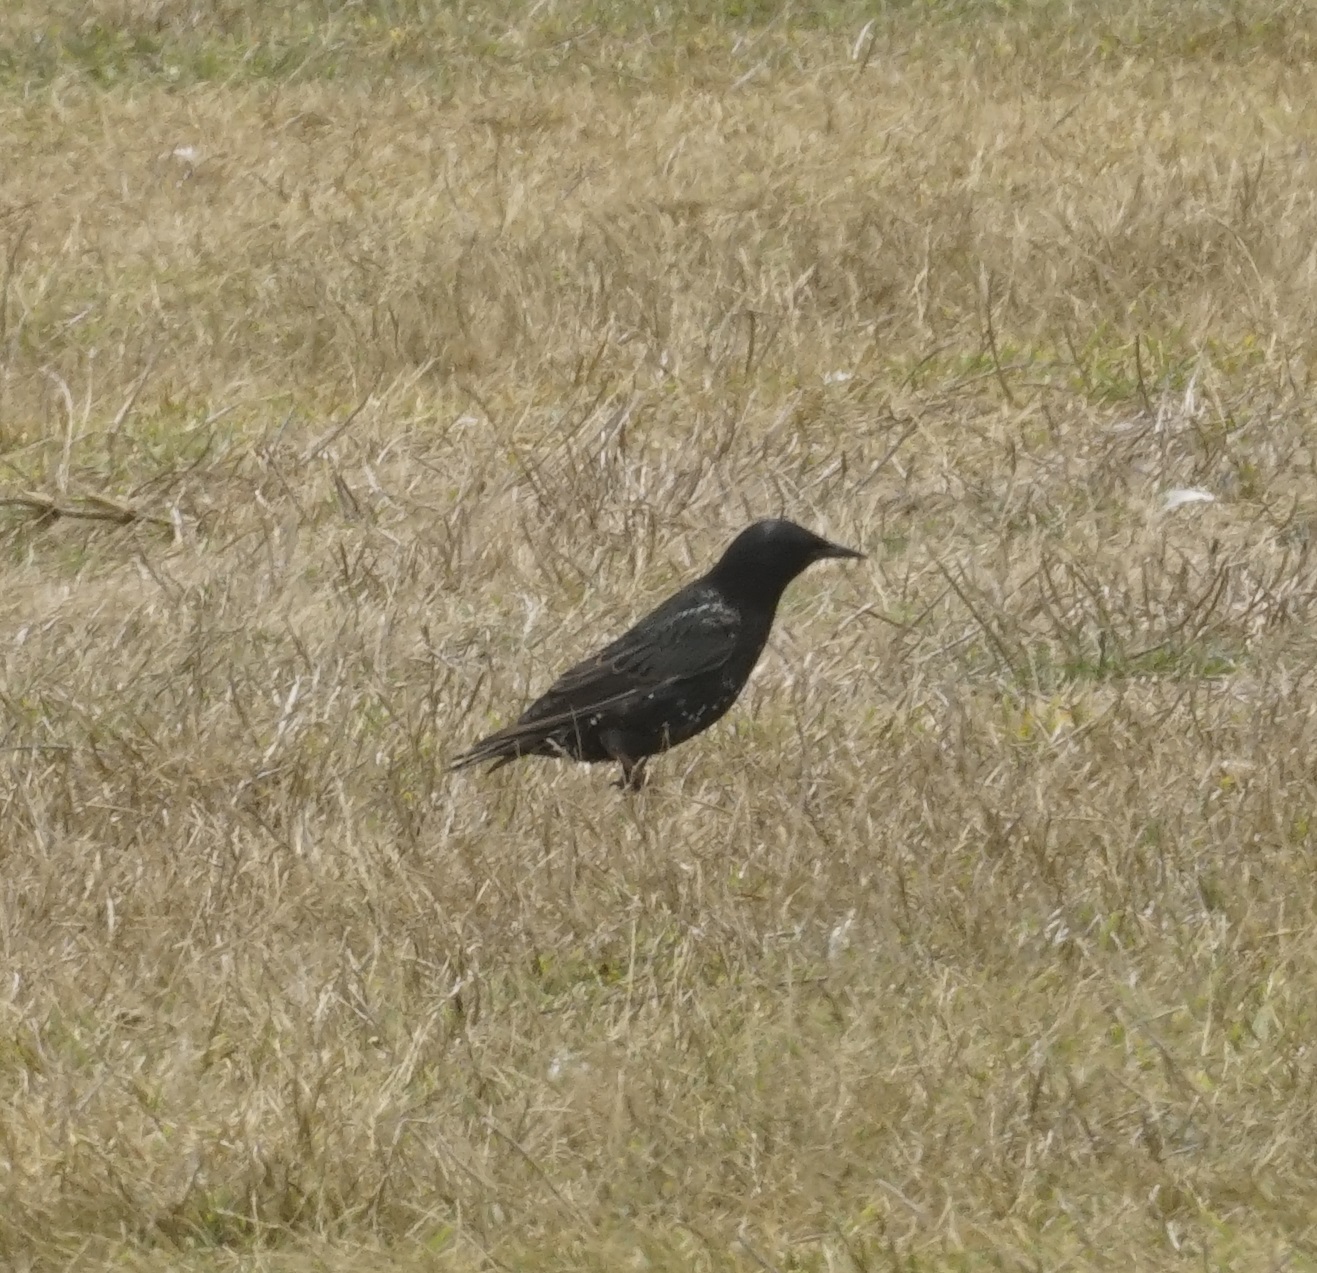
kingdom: Animalia
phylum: Chordata
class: Aves
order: Passeriformes
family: Sturnidae
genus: Sturnus
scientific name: Sturnus vulgaris
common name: Common starling
